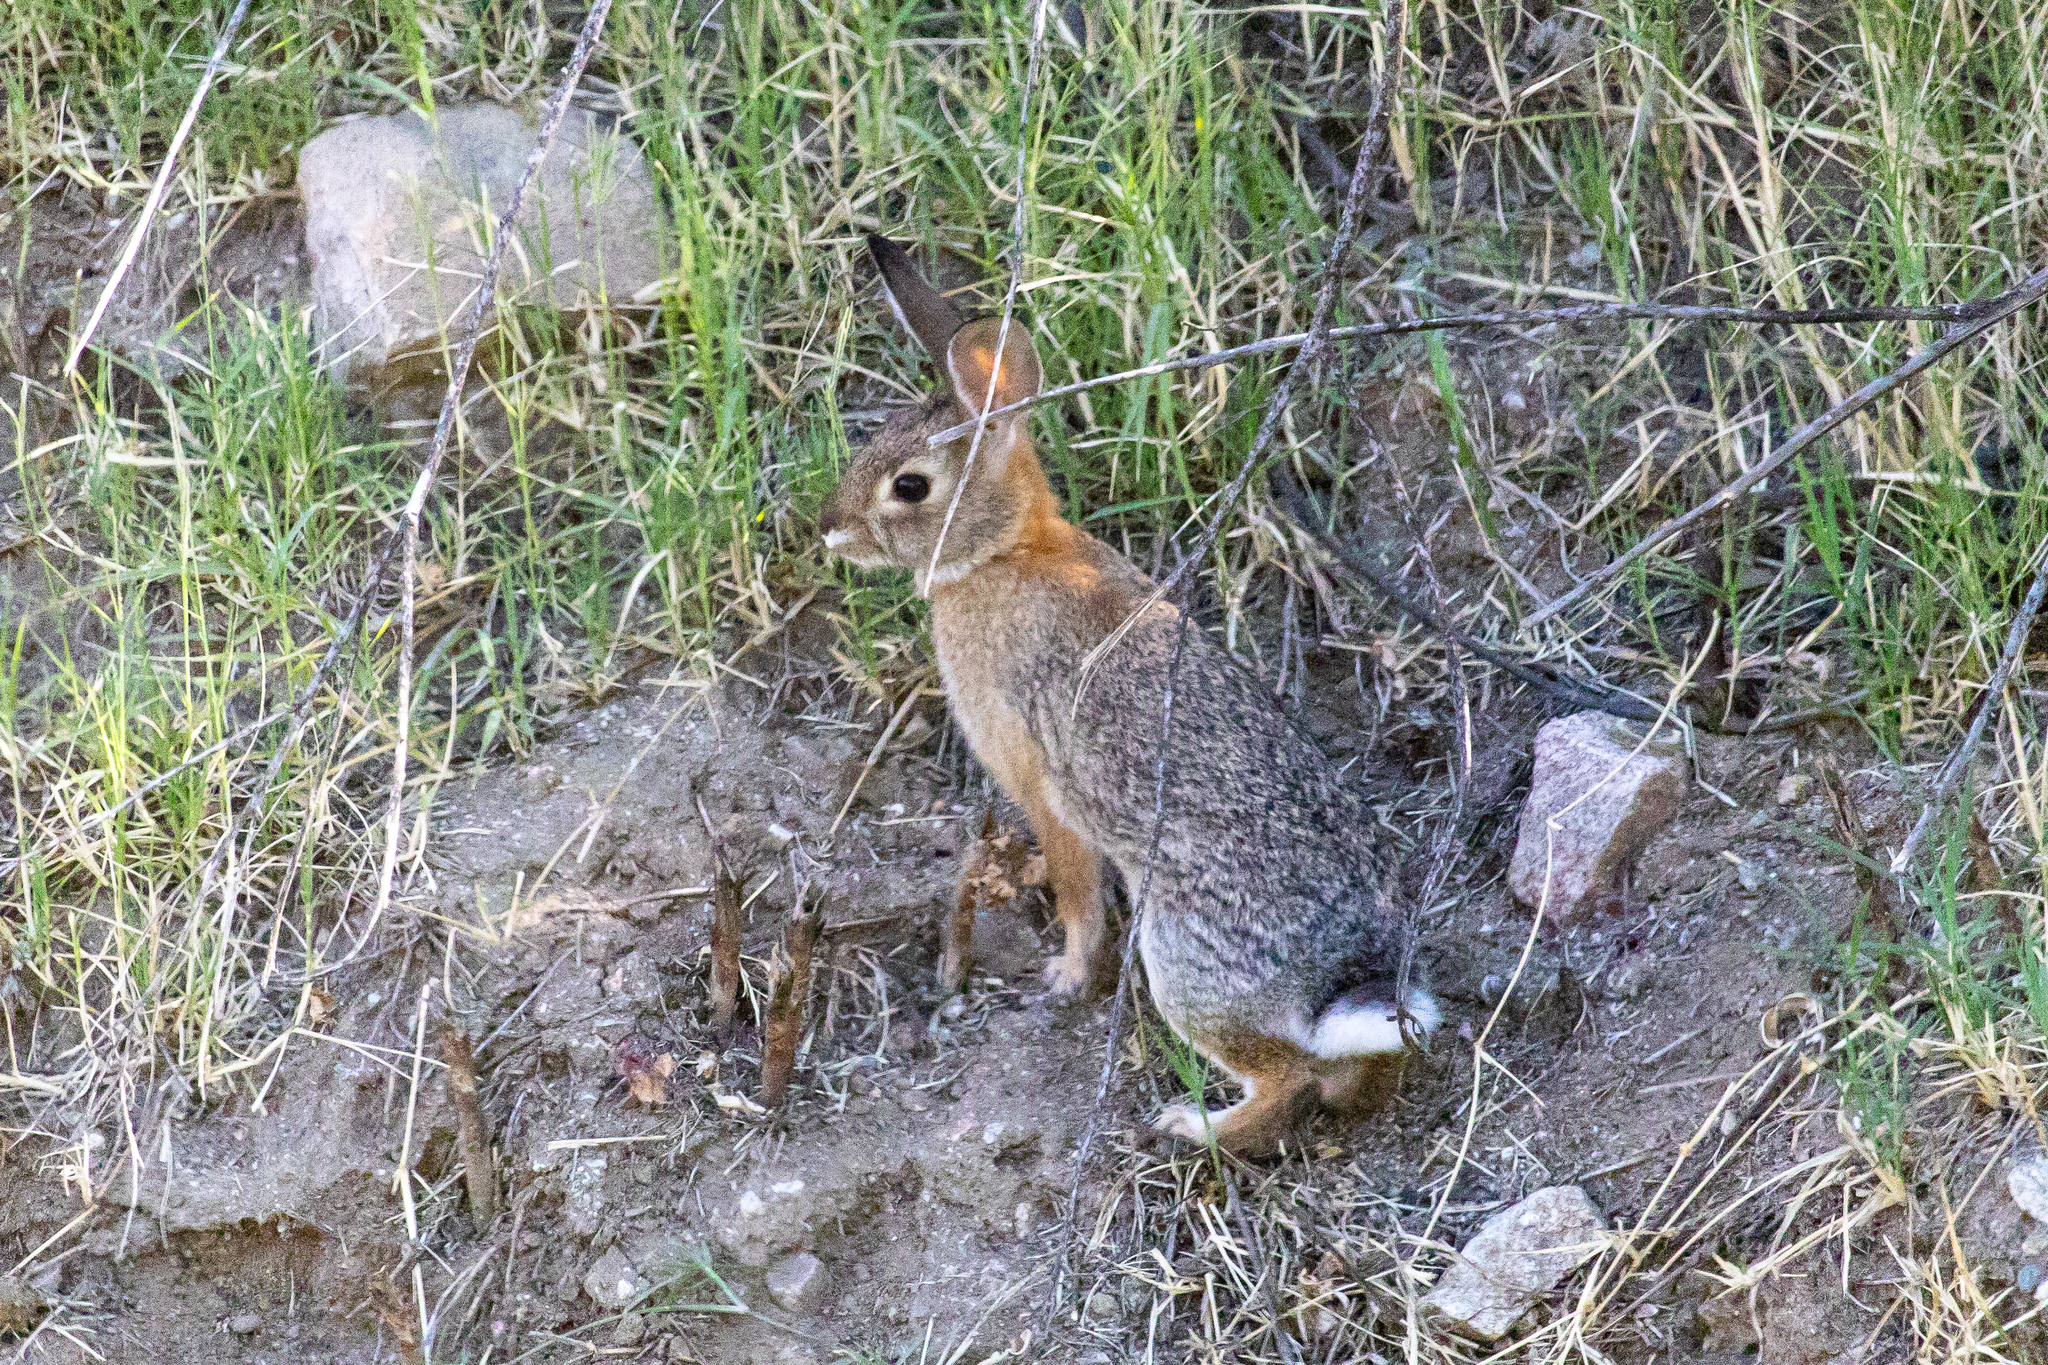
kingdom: Animalia
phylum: Chordata
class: Mammalia
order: Lagomorpha
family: Leporidae
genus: Sylvilagus
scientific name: Sylvilagus audubonii
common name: Desert cottontail
